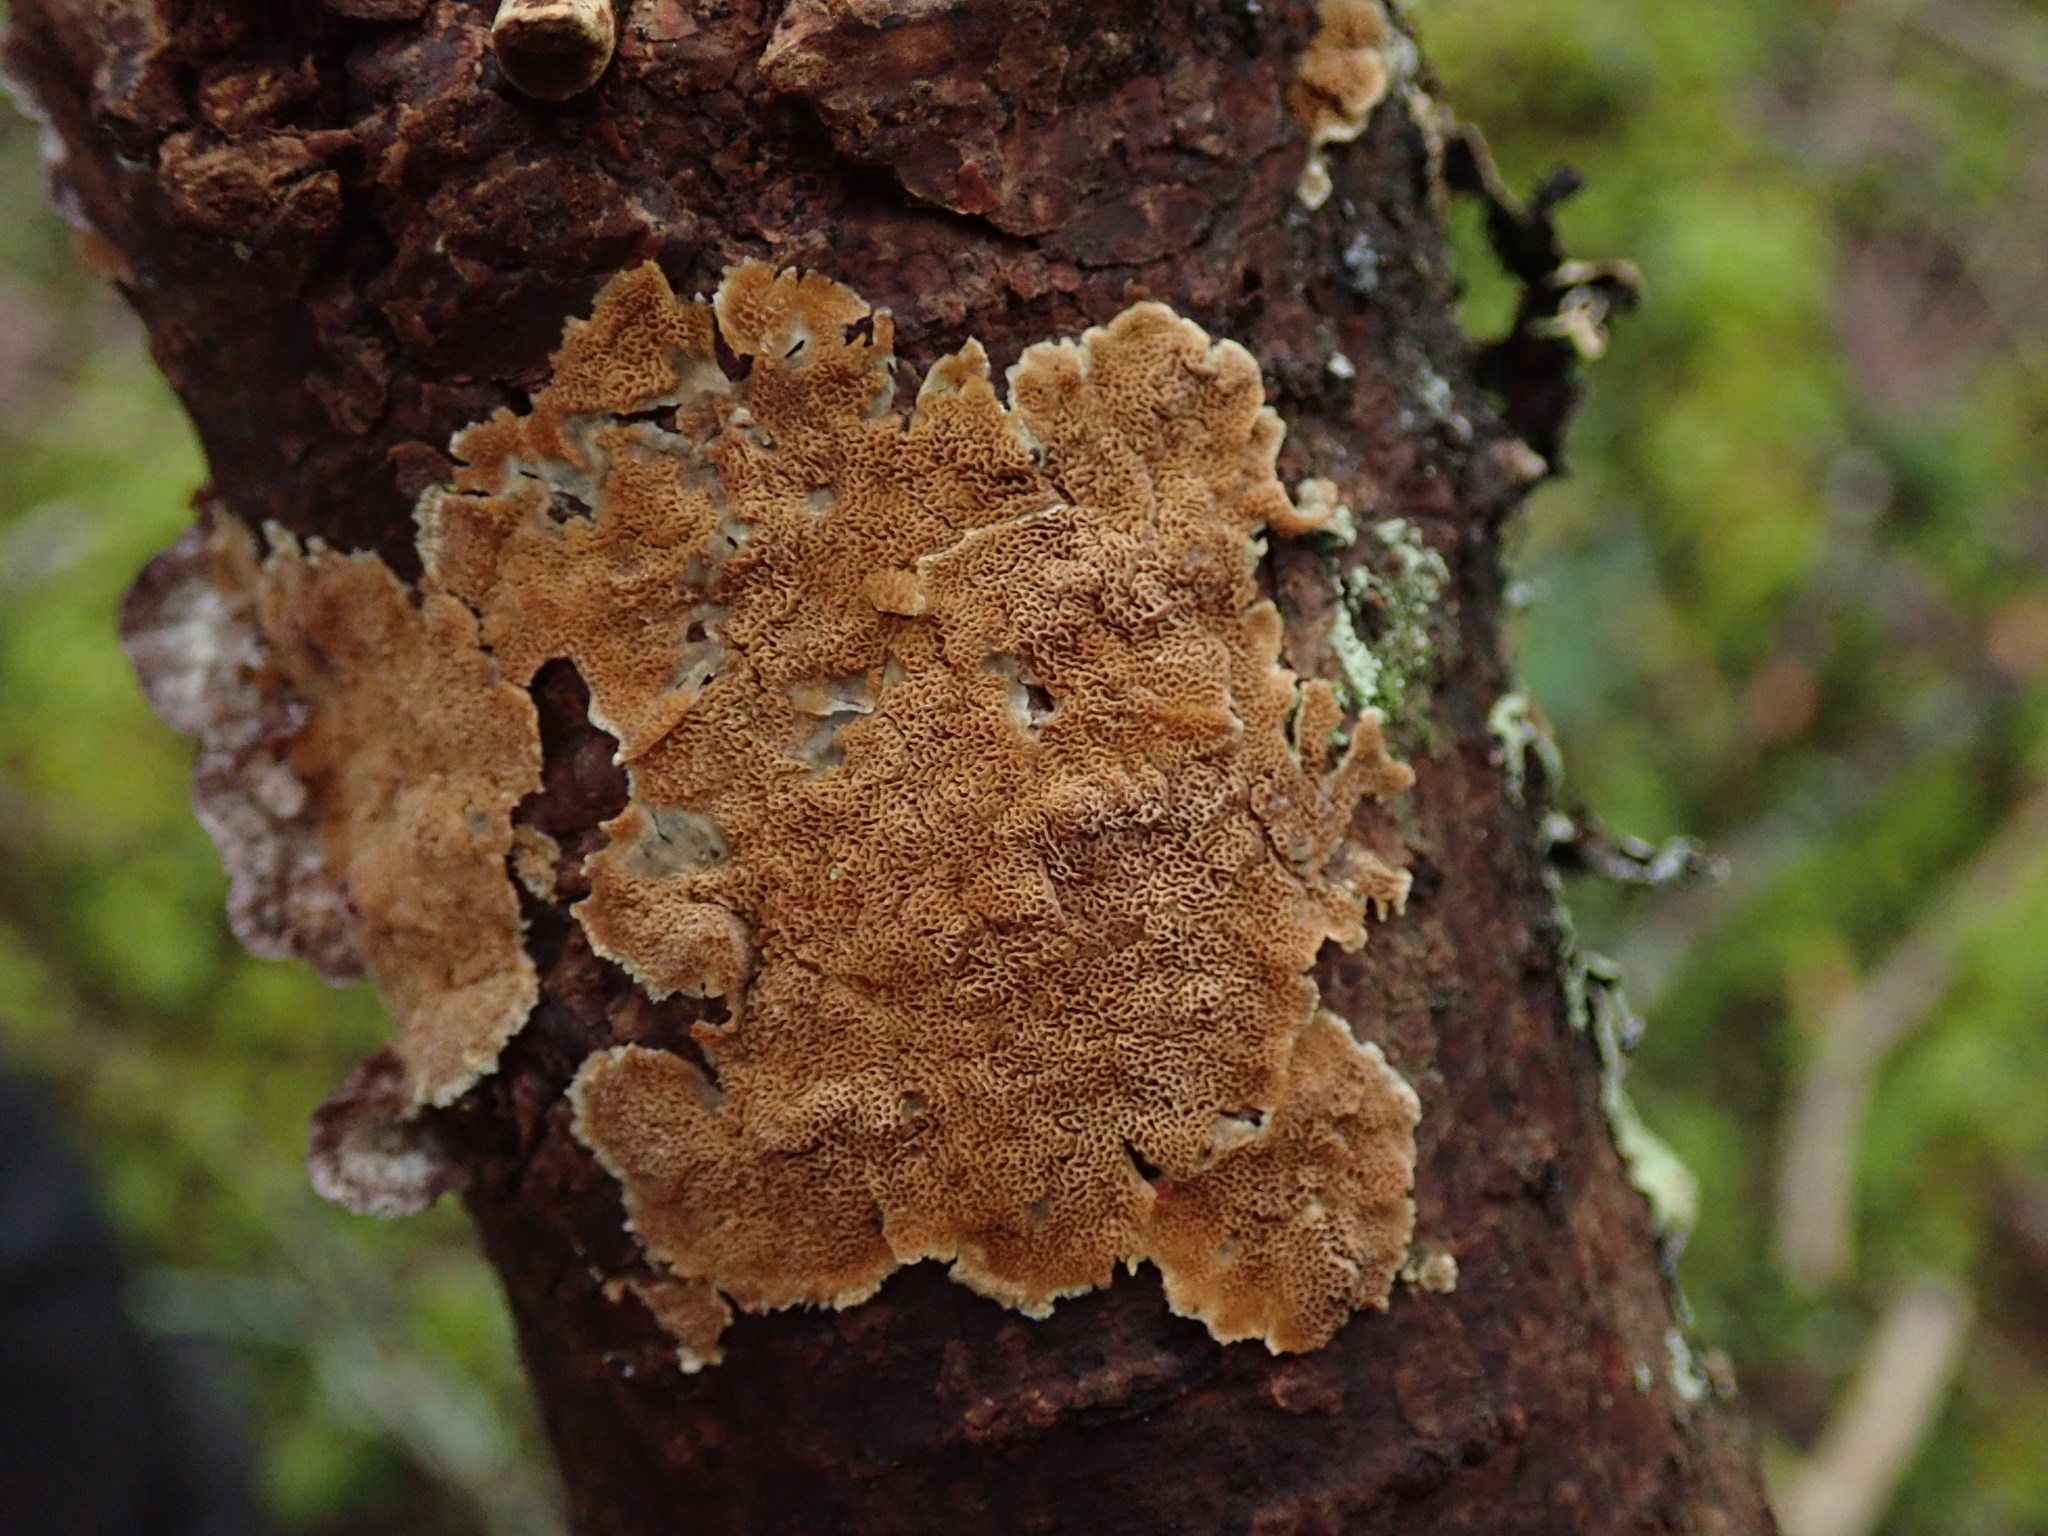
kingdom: Fungi
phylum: Basidiomycota
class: Agaricomycetes
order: Hymenochaetales
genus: Trichaptum
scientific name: Trichaptum abietinum
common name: Purplepore bracket
